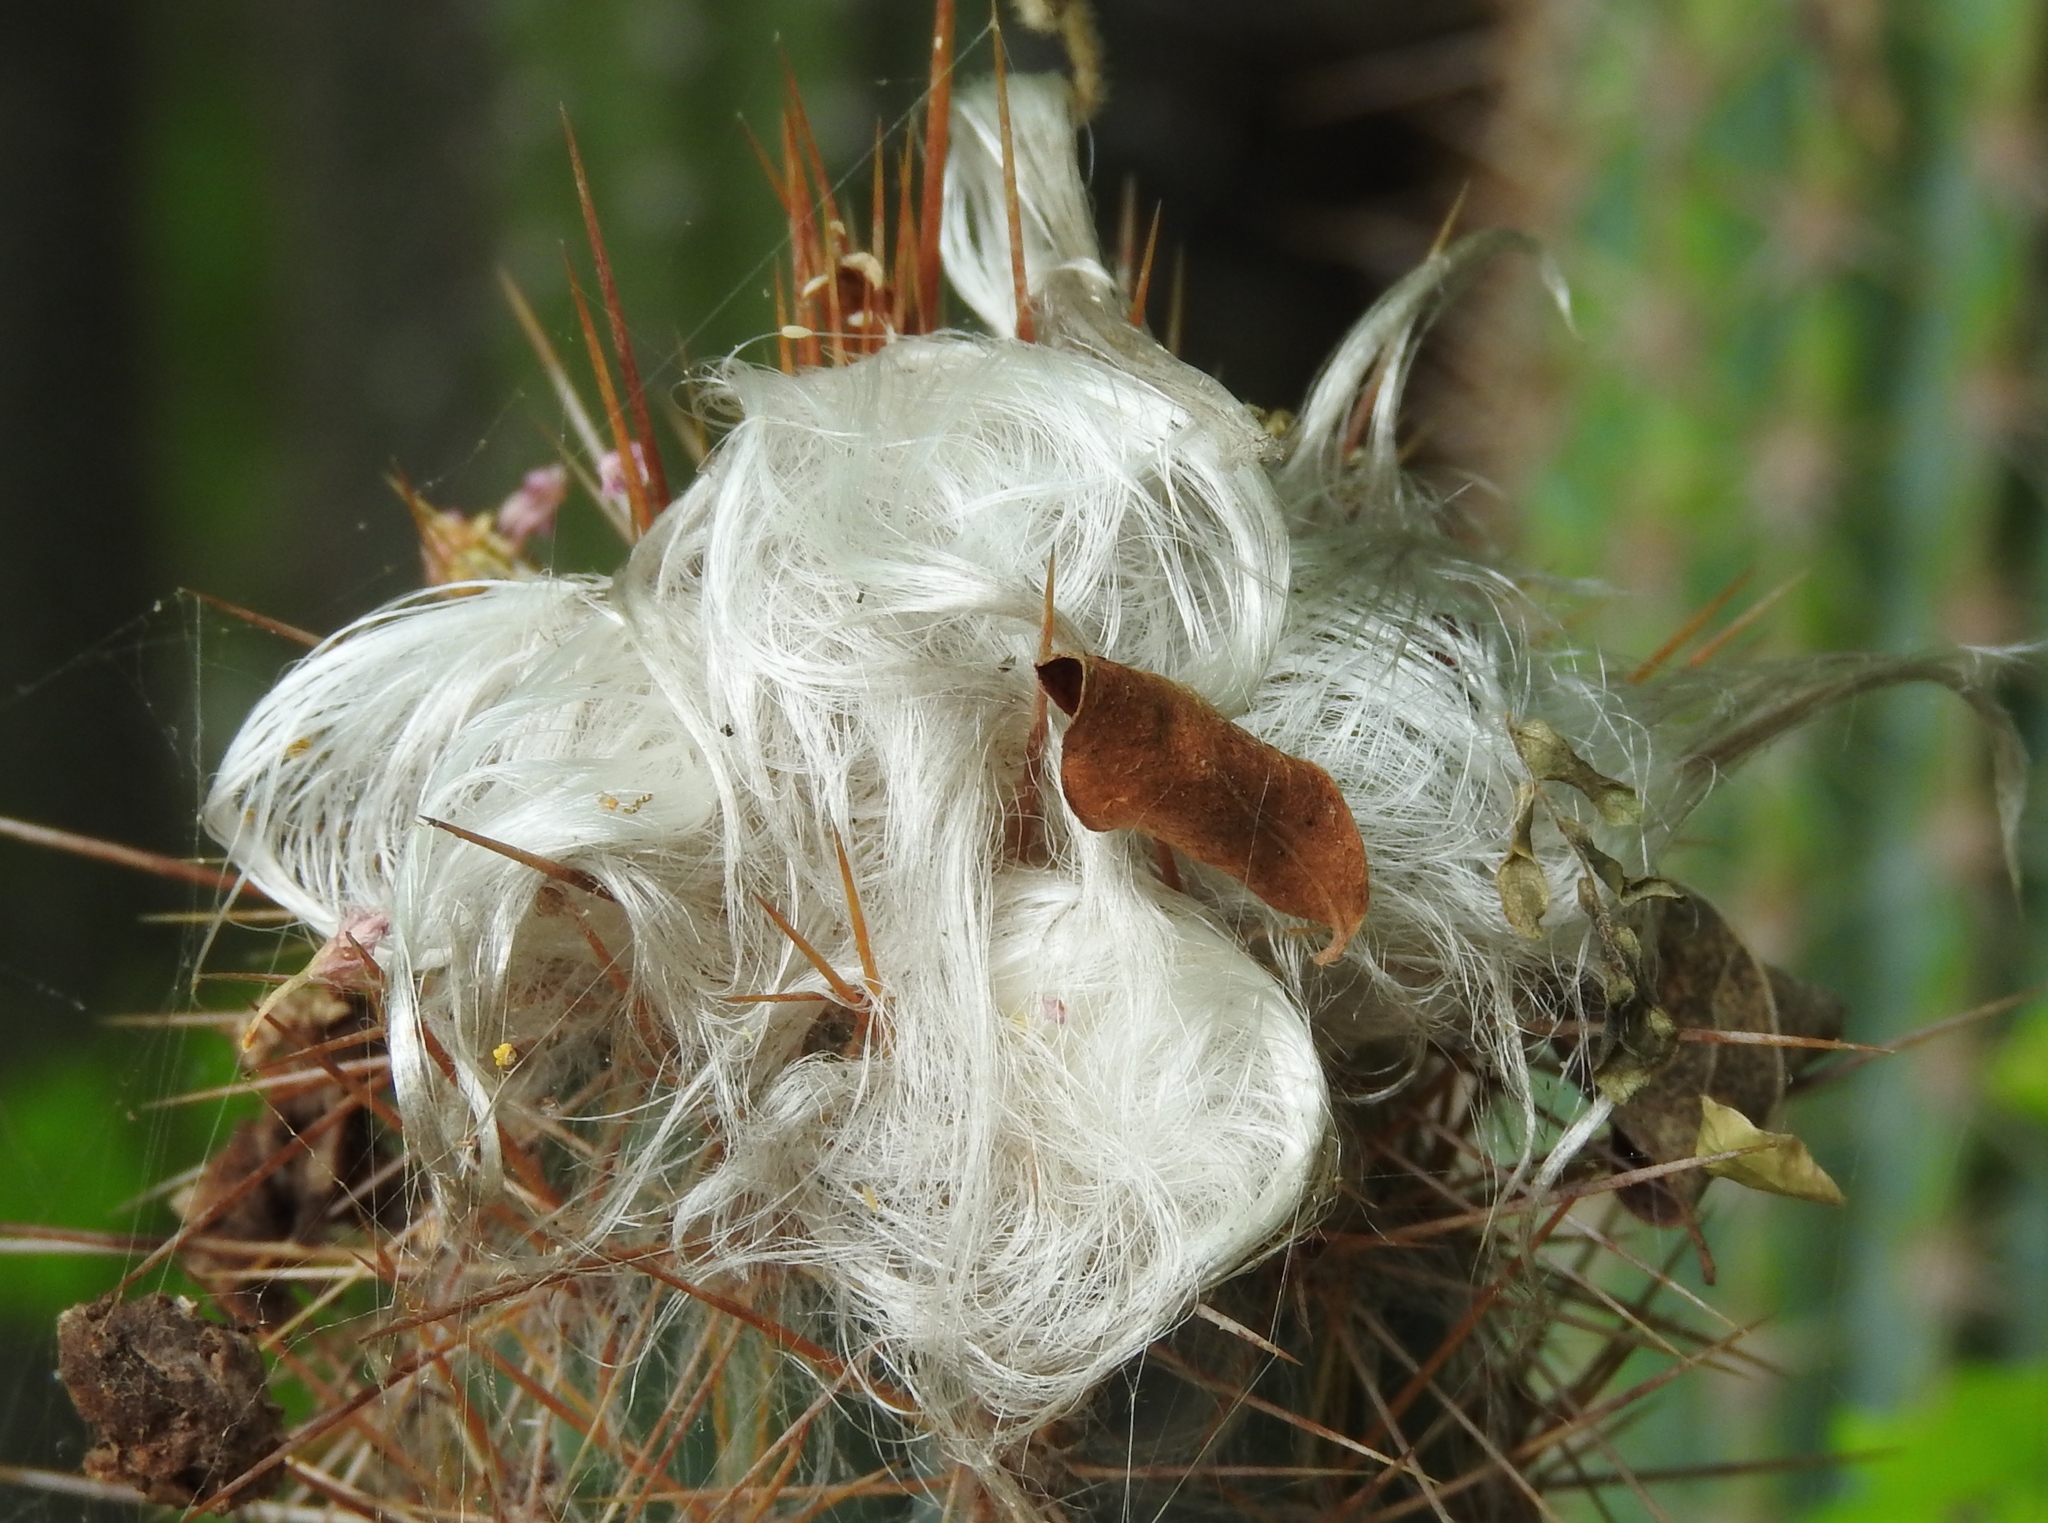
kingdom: Plantae
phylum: Tracheophyta
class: Magnoliopsida
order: Caryophyllales
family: Cactaceae
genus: Pilosocereus
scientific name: Pilosocereus purpusii
